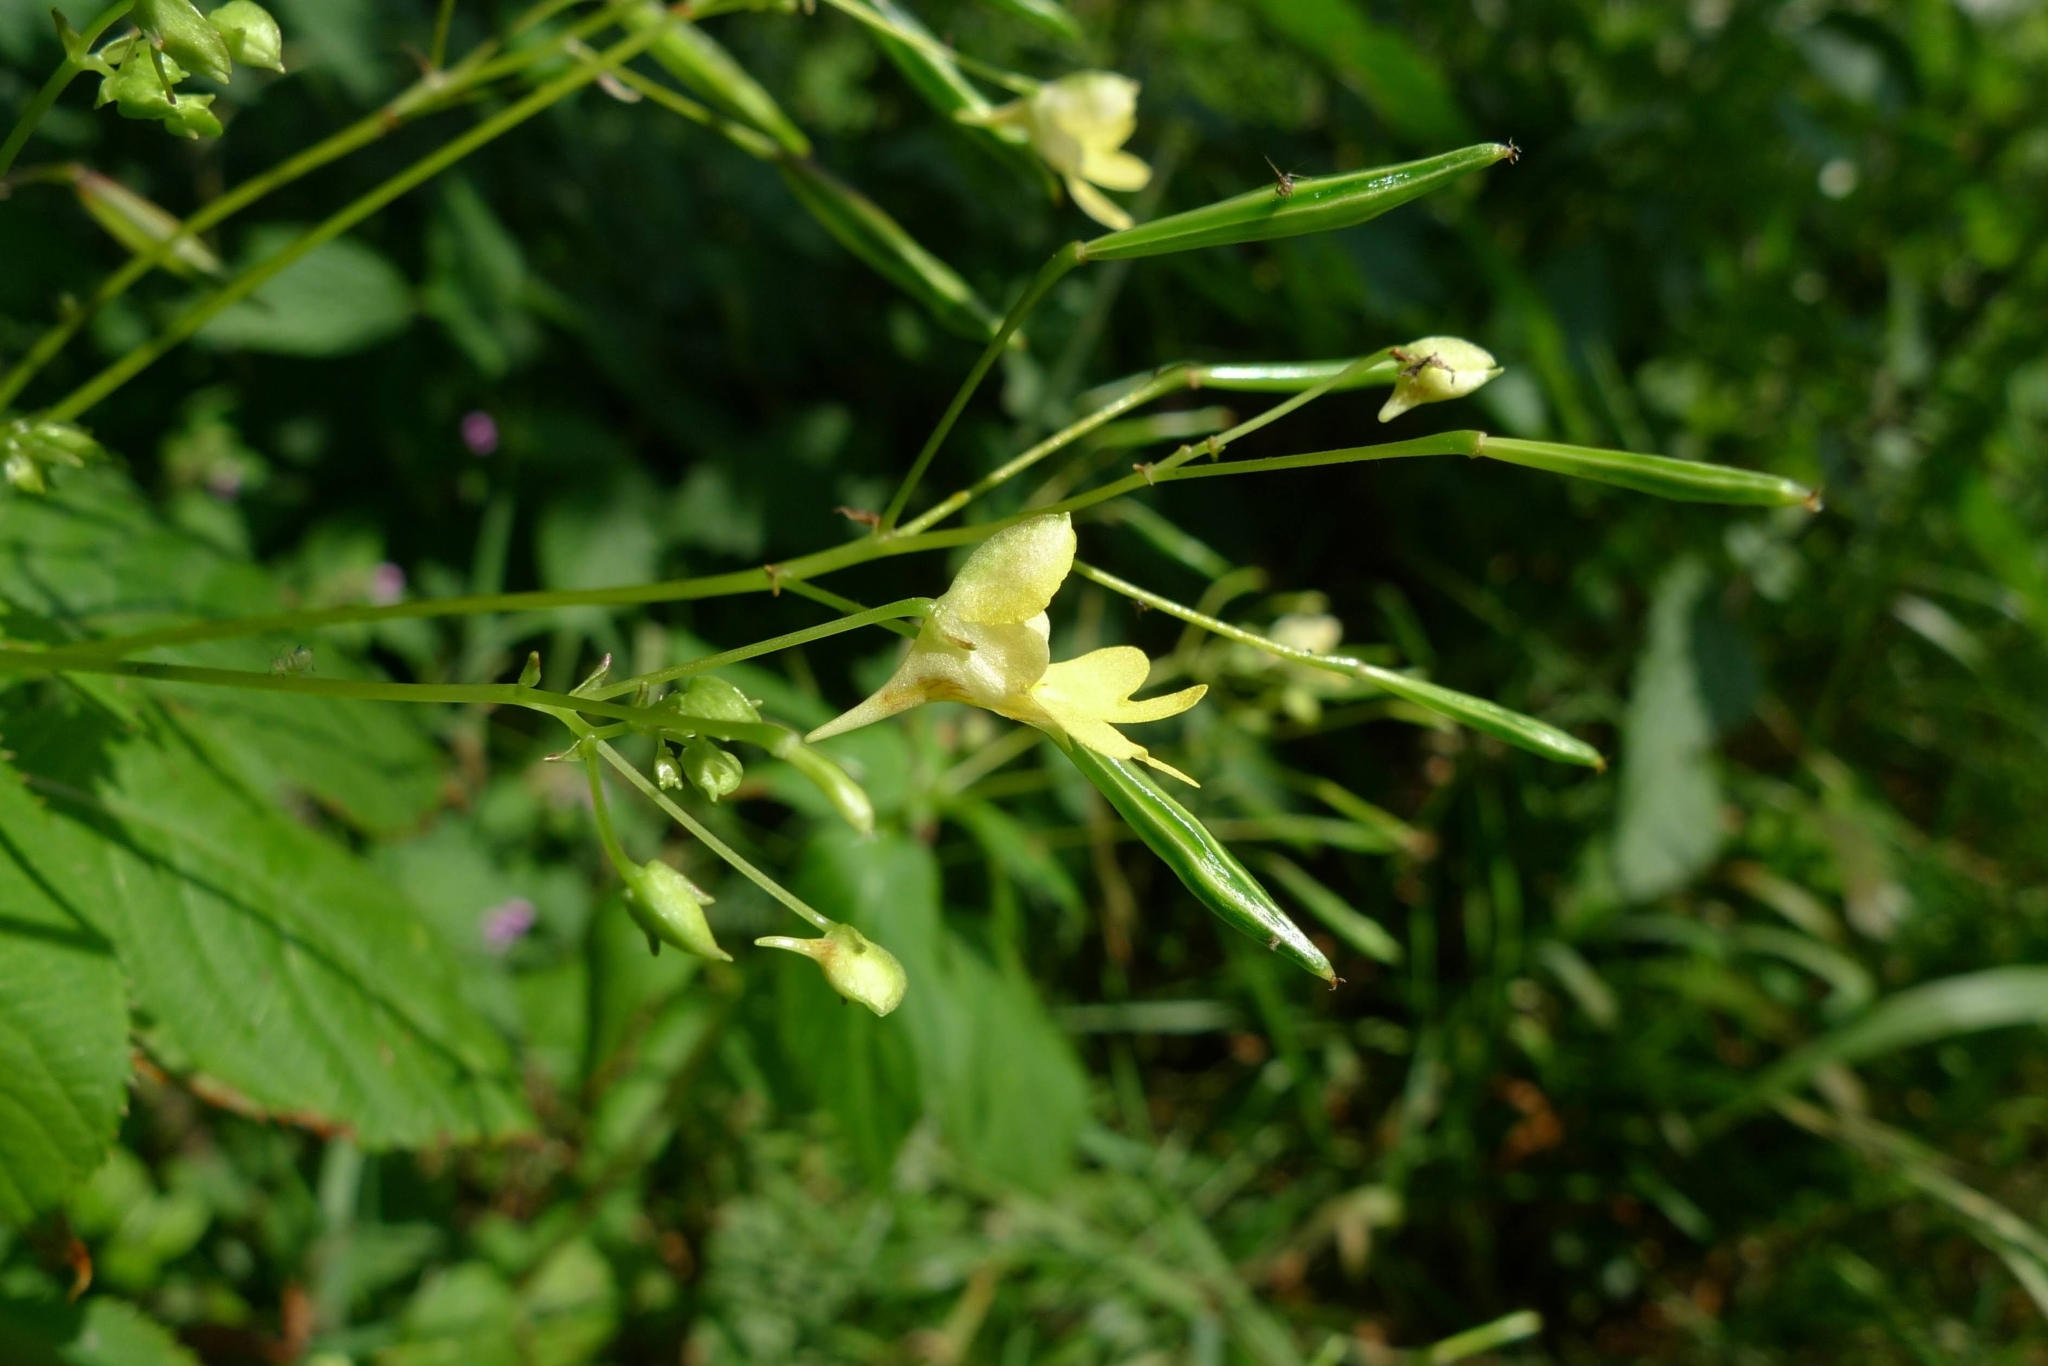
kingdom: Plantae
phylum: Tracheophyta
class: Magnoliopsida
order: Ericales
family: Balsaminaceae
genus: Impatiens
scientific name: Impatiens parviflora
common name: Small balsam
